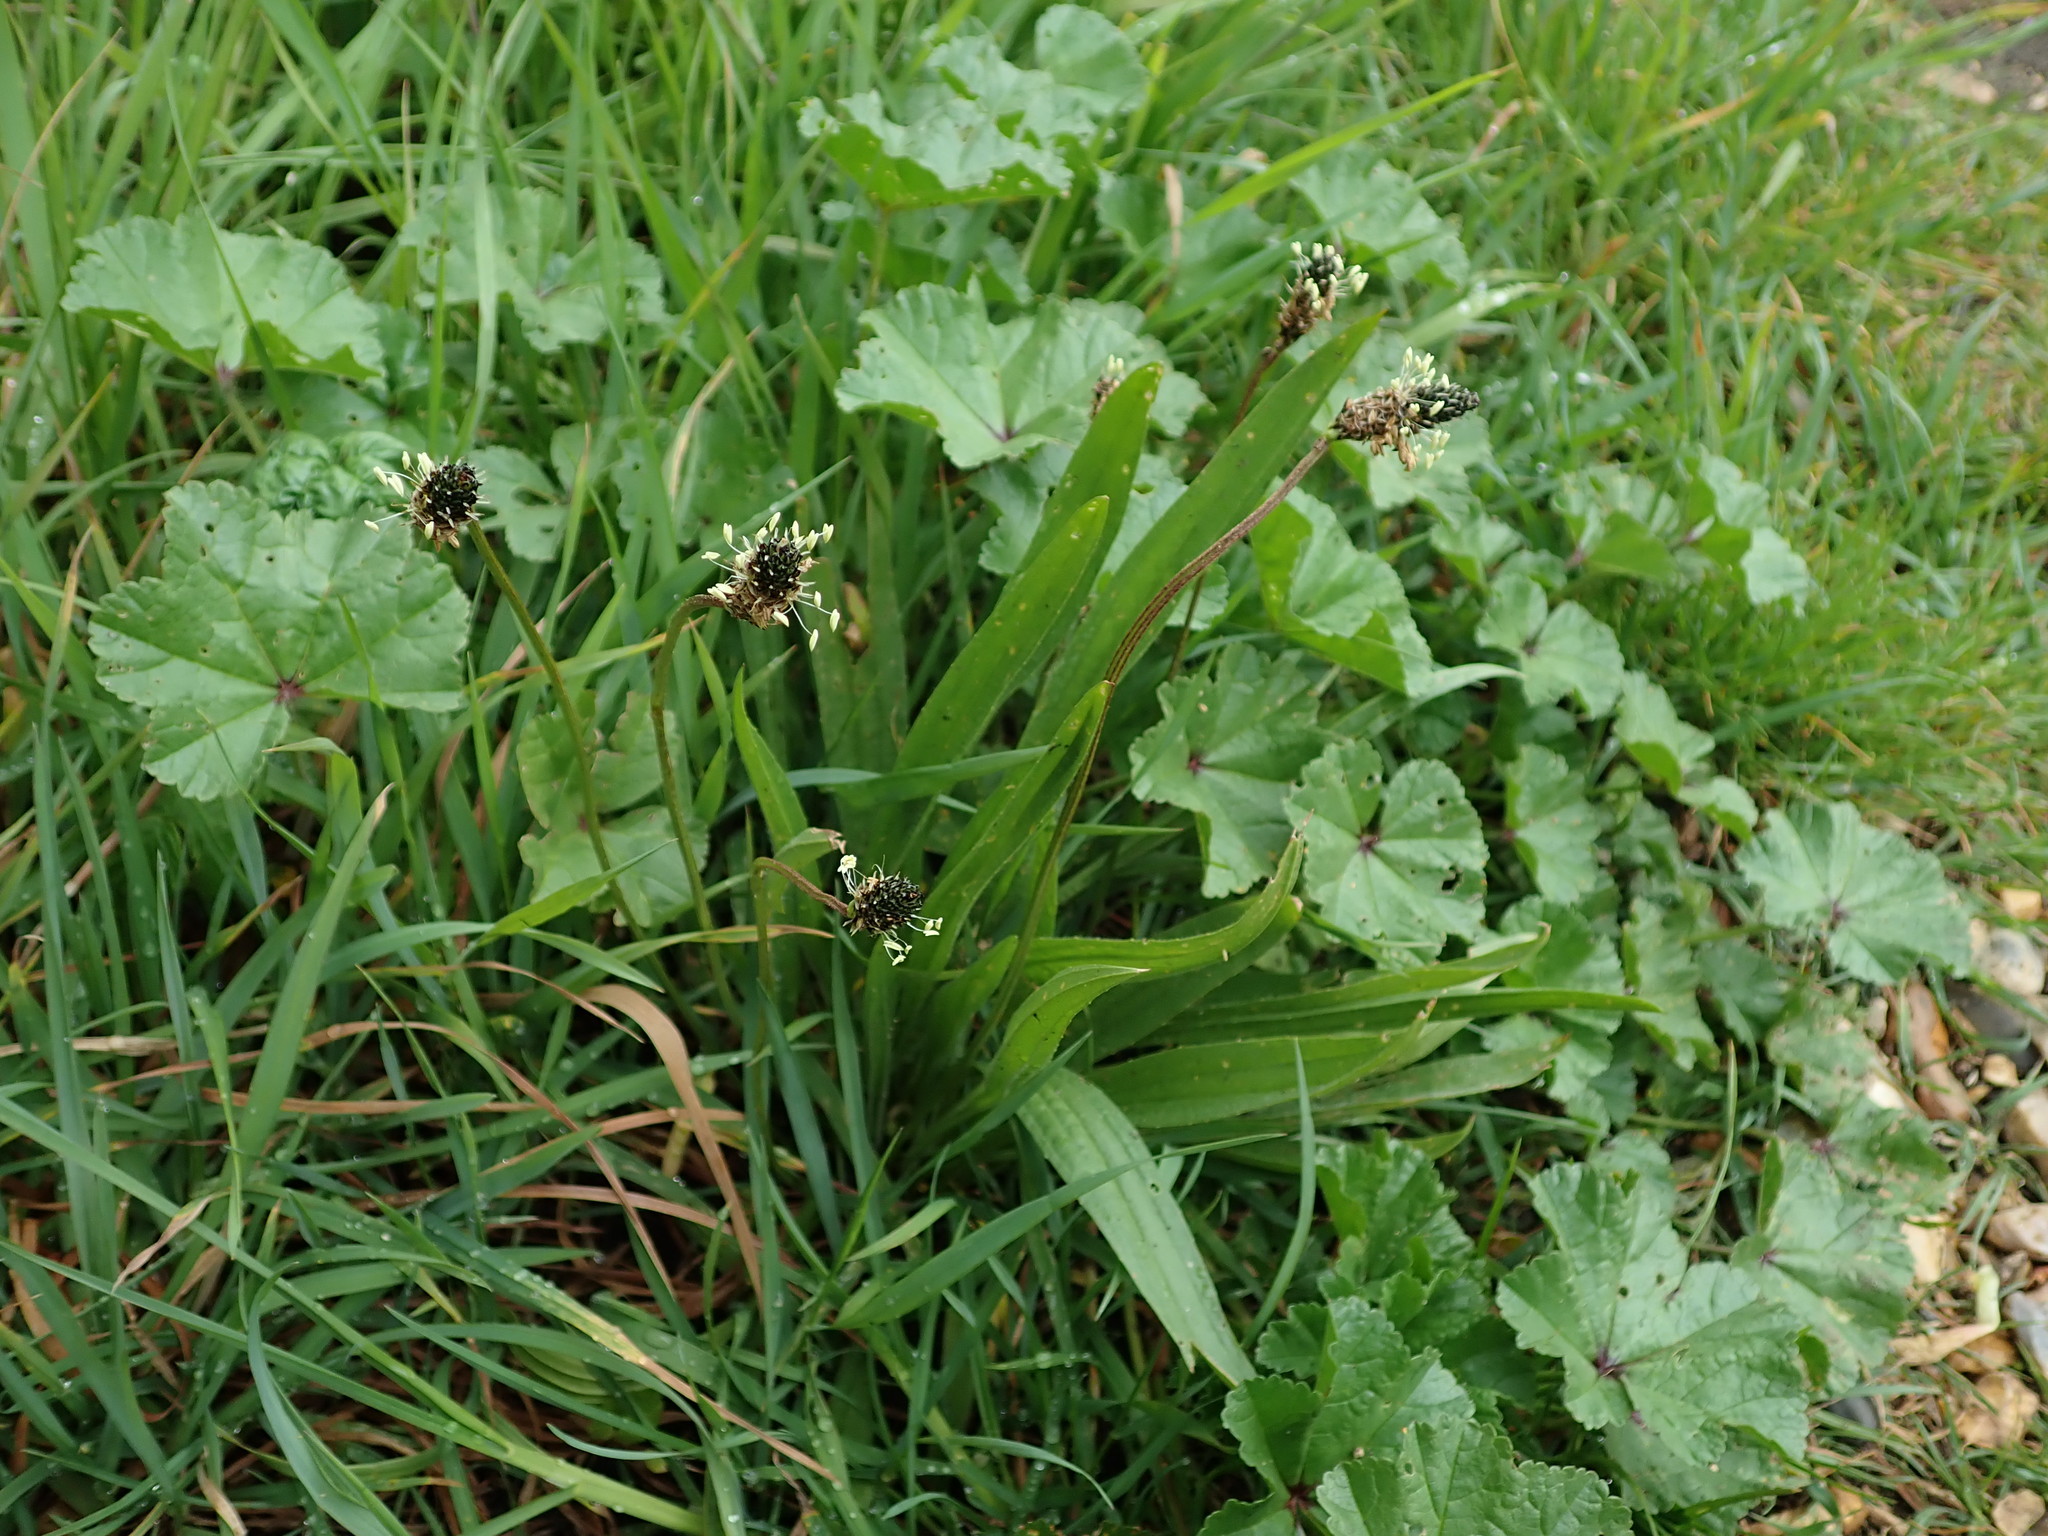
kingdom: Plantae
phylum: Tracheophyta
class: Magnoliopsida
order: Lamiales
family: Plantaginaceae
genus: Plantago
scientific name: Plantago lanceolata
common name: Ribwort plantain
